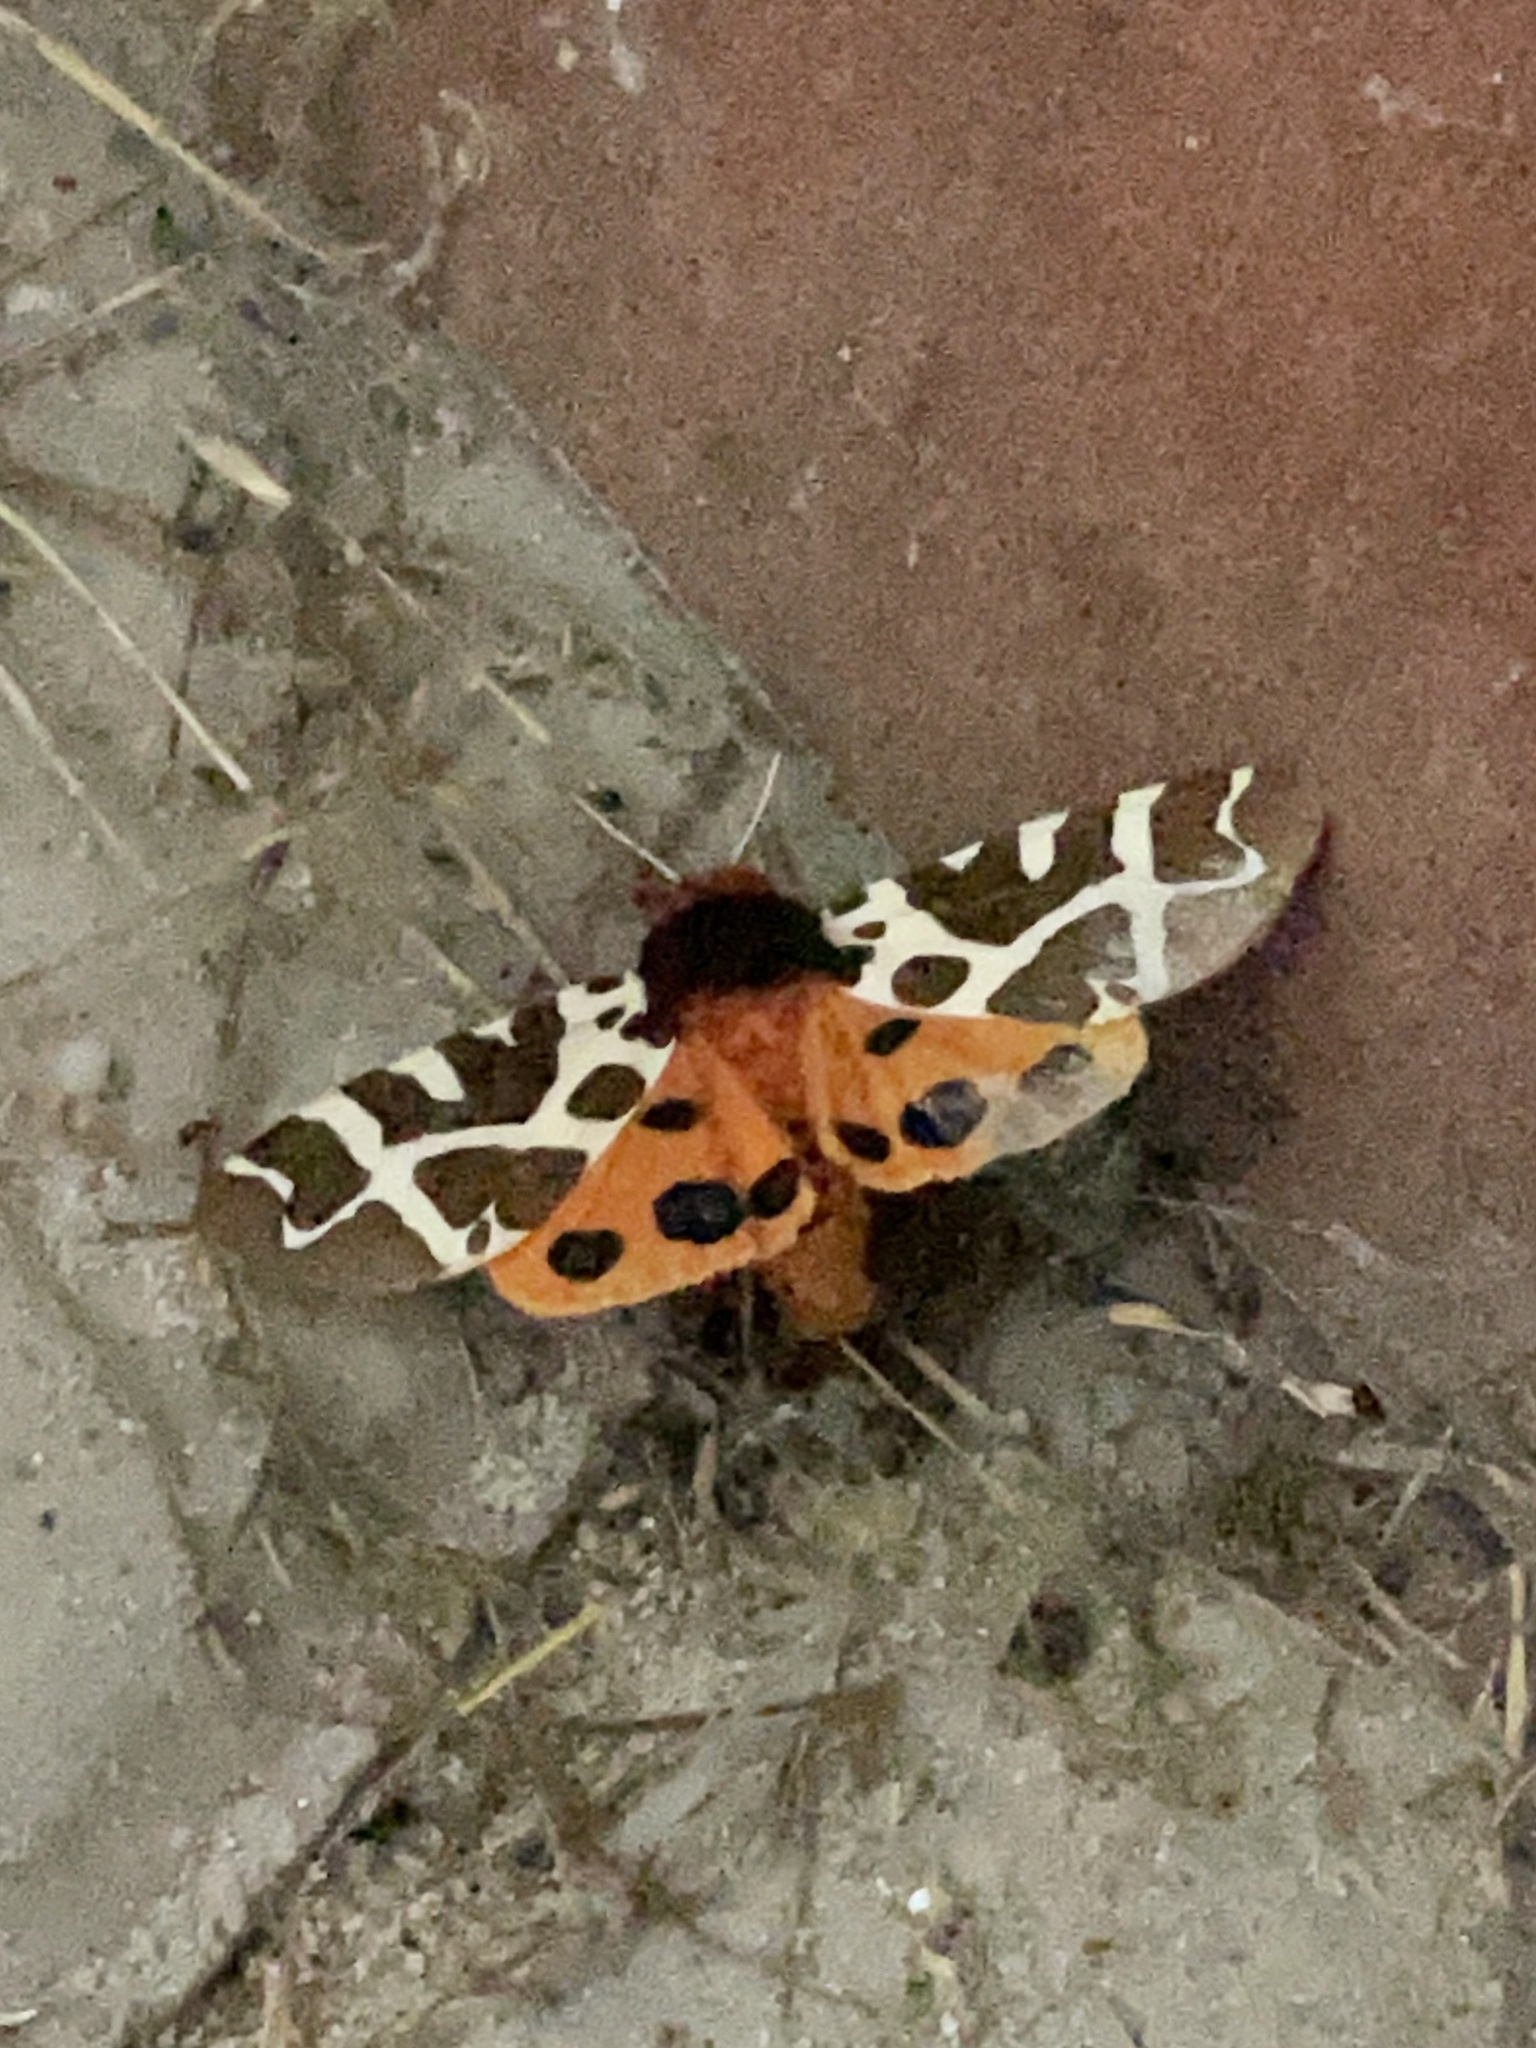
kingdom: Animalia
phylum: Arthropoda
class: Insecta
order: Lepidoptera
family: Erebidae
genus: Arctia
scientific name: Arctia caja
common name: Garden tiger
